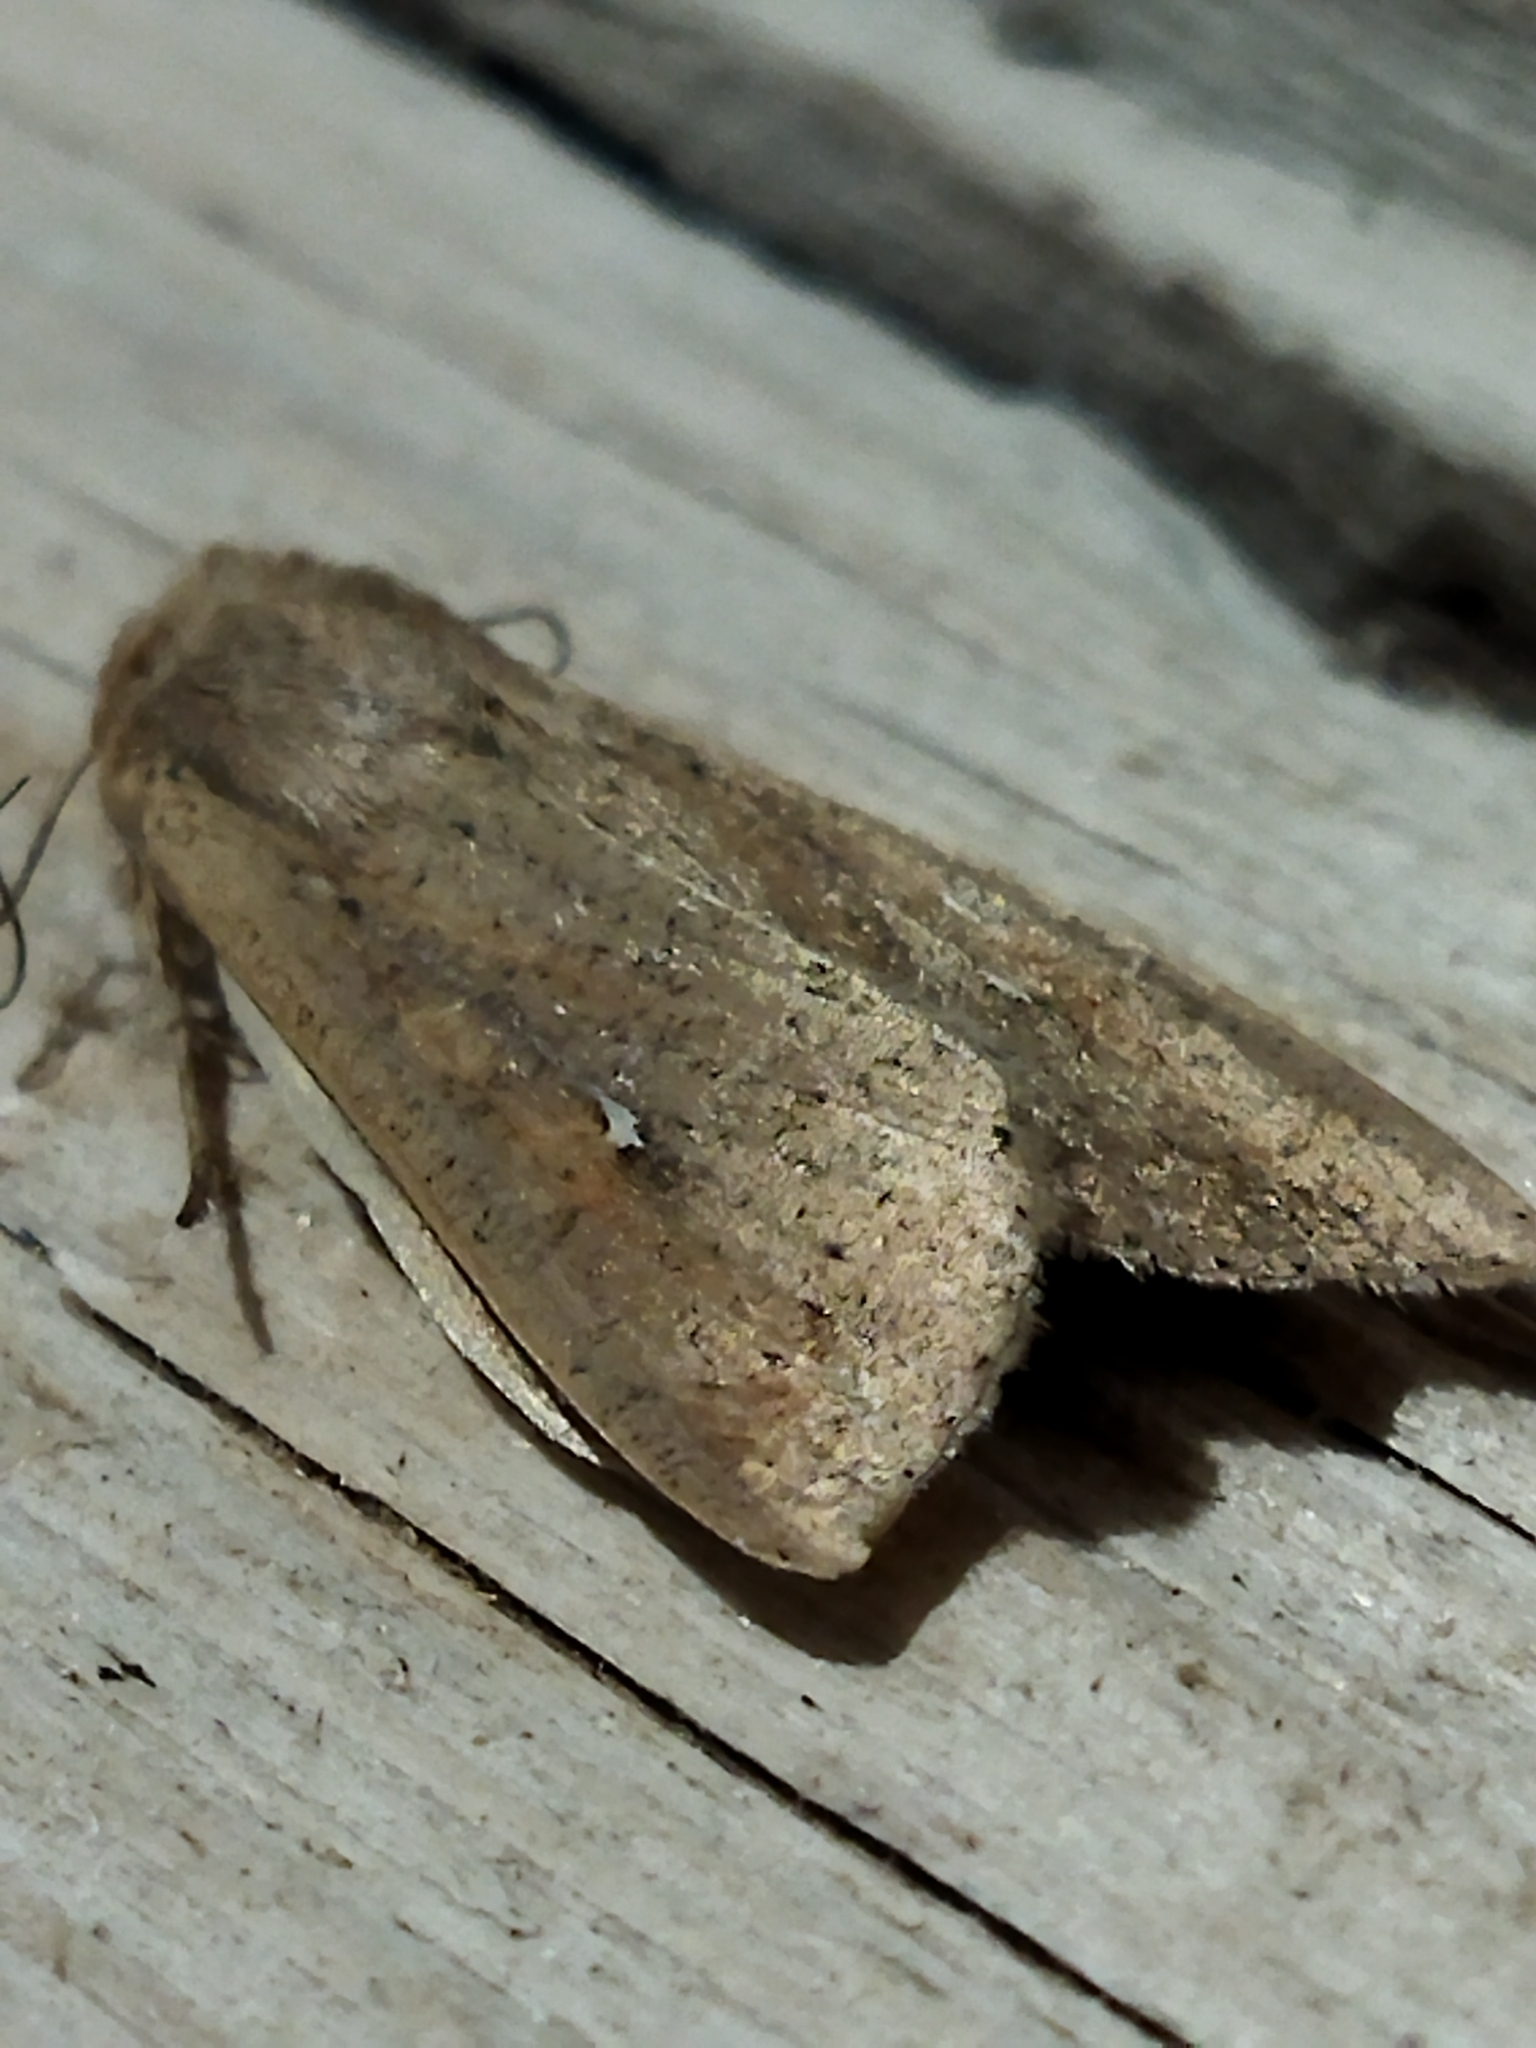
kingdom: Animalia
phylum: Arthropoda
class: Insecta
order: Lepidoptera
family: Noctuidae
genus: Mythimna
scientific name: Mythimna unipuncta
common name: White-speck
